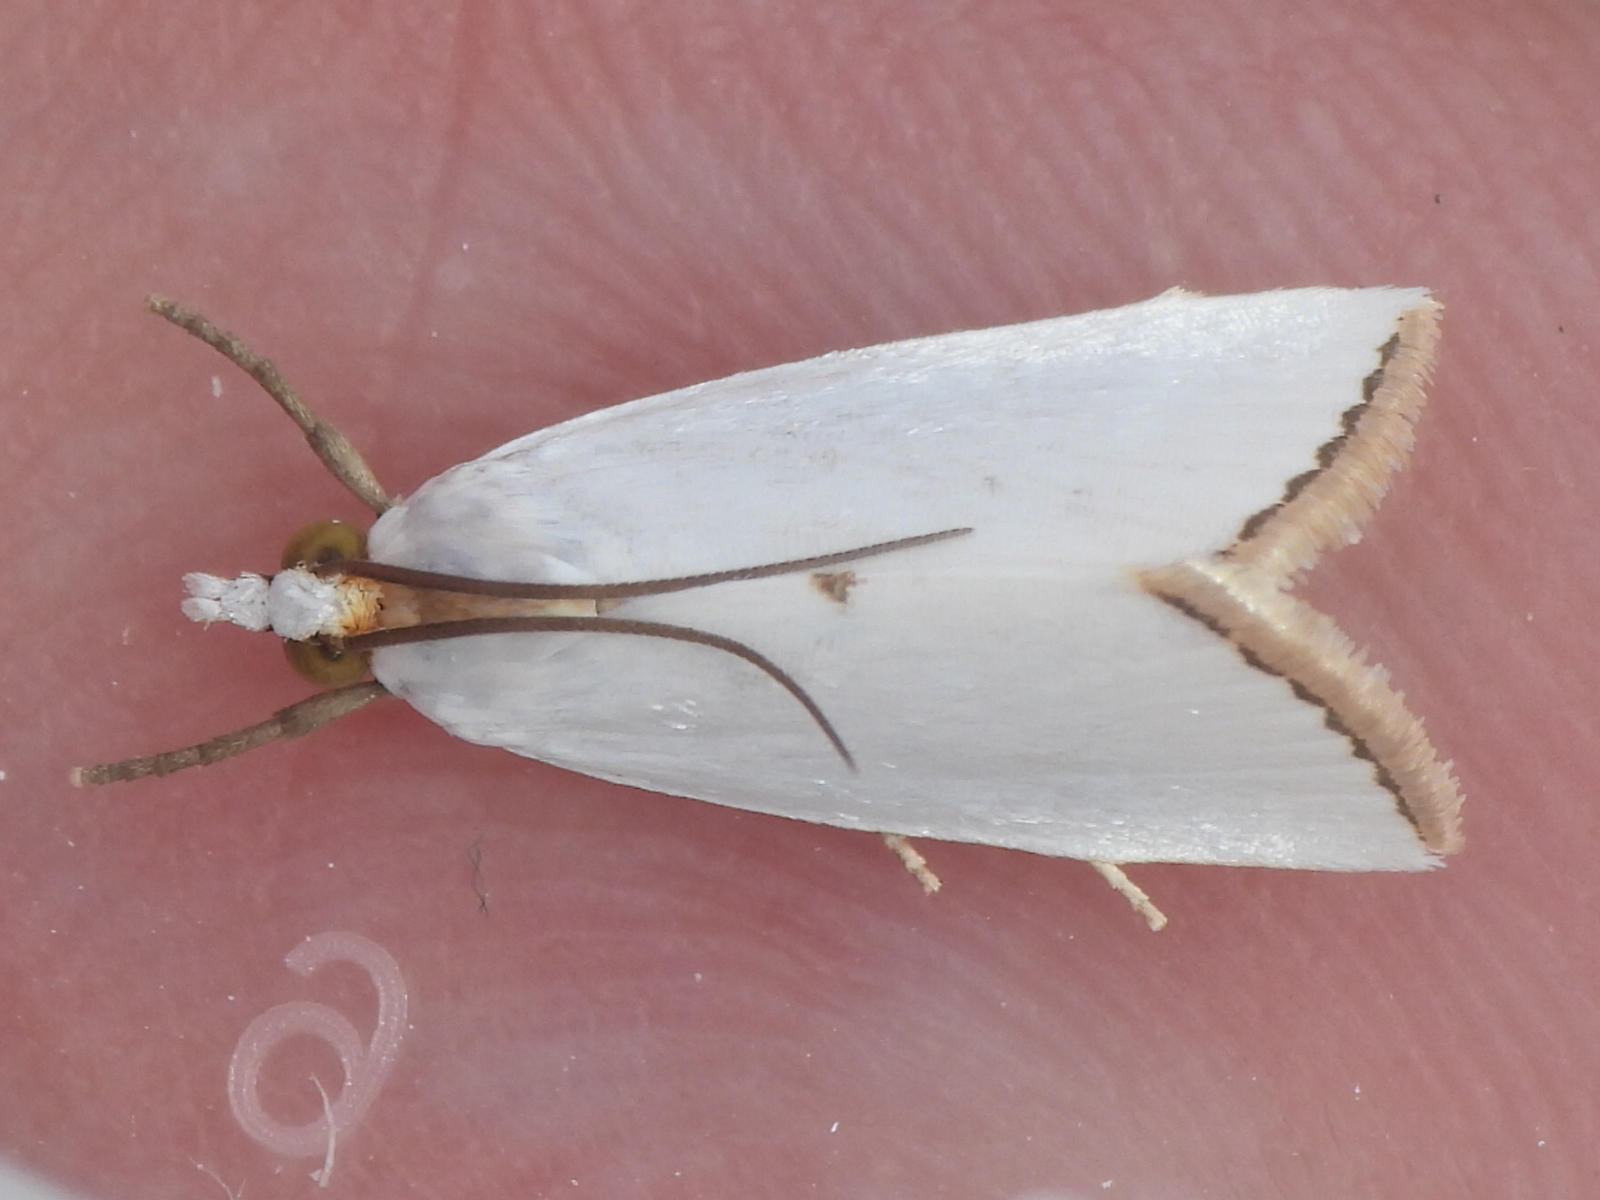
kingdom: Animalia
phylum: Arthropoda
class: Insecta
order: Lepidoptera
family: Crambidae
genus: Argyria
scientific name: Argyria nivalis
